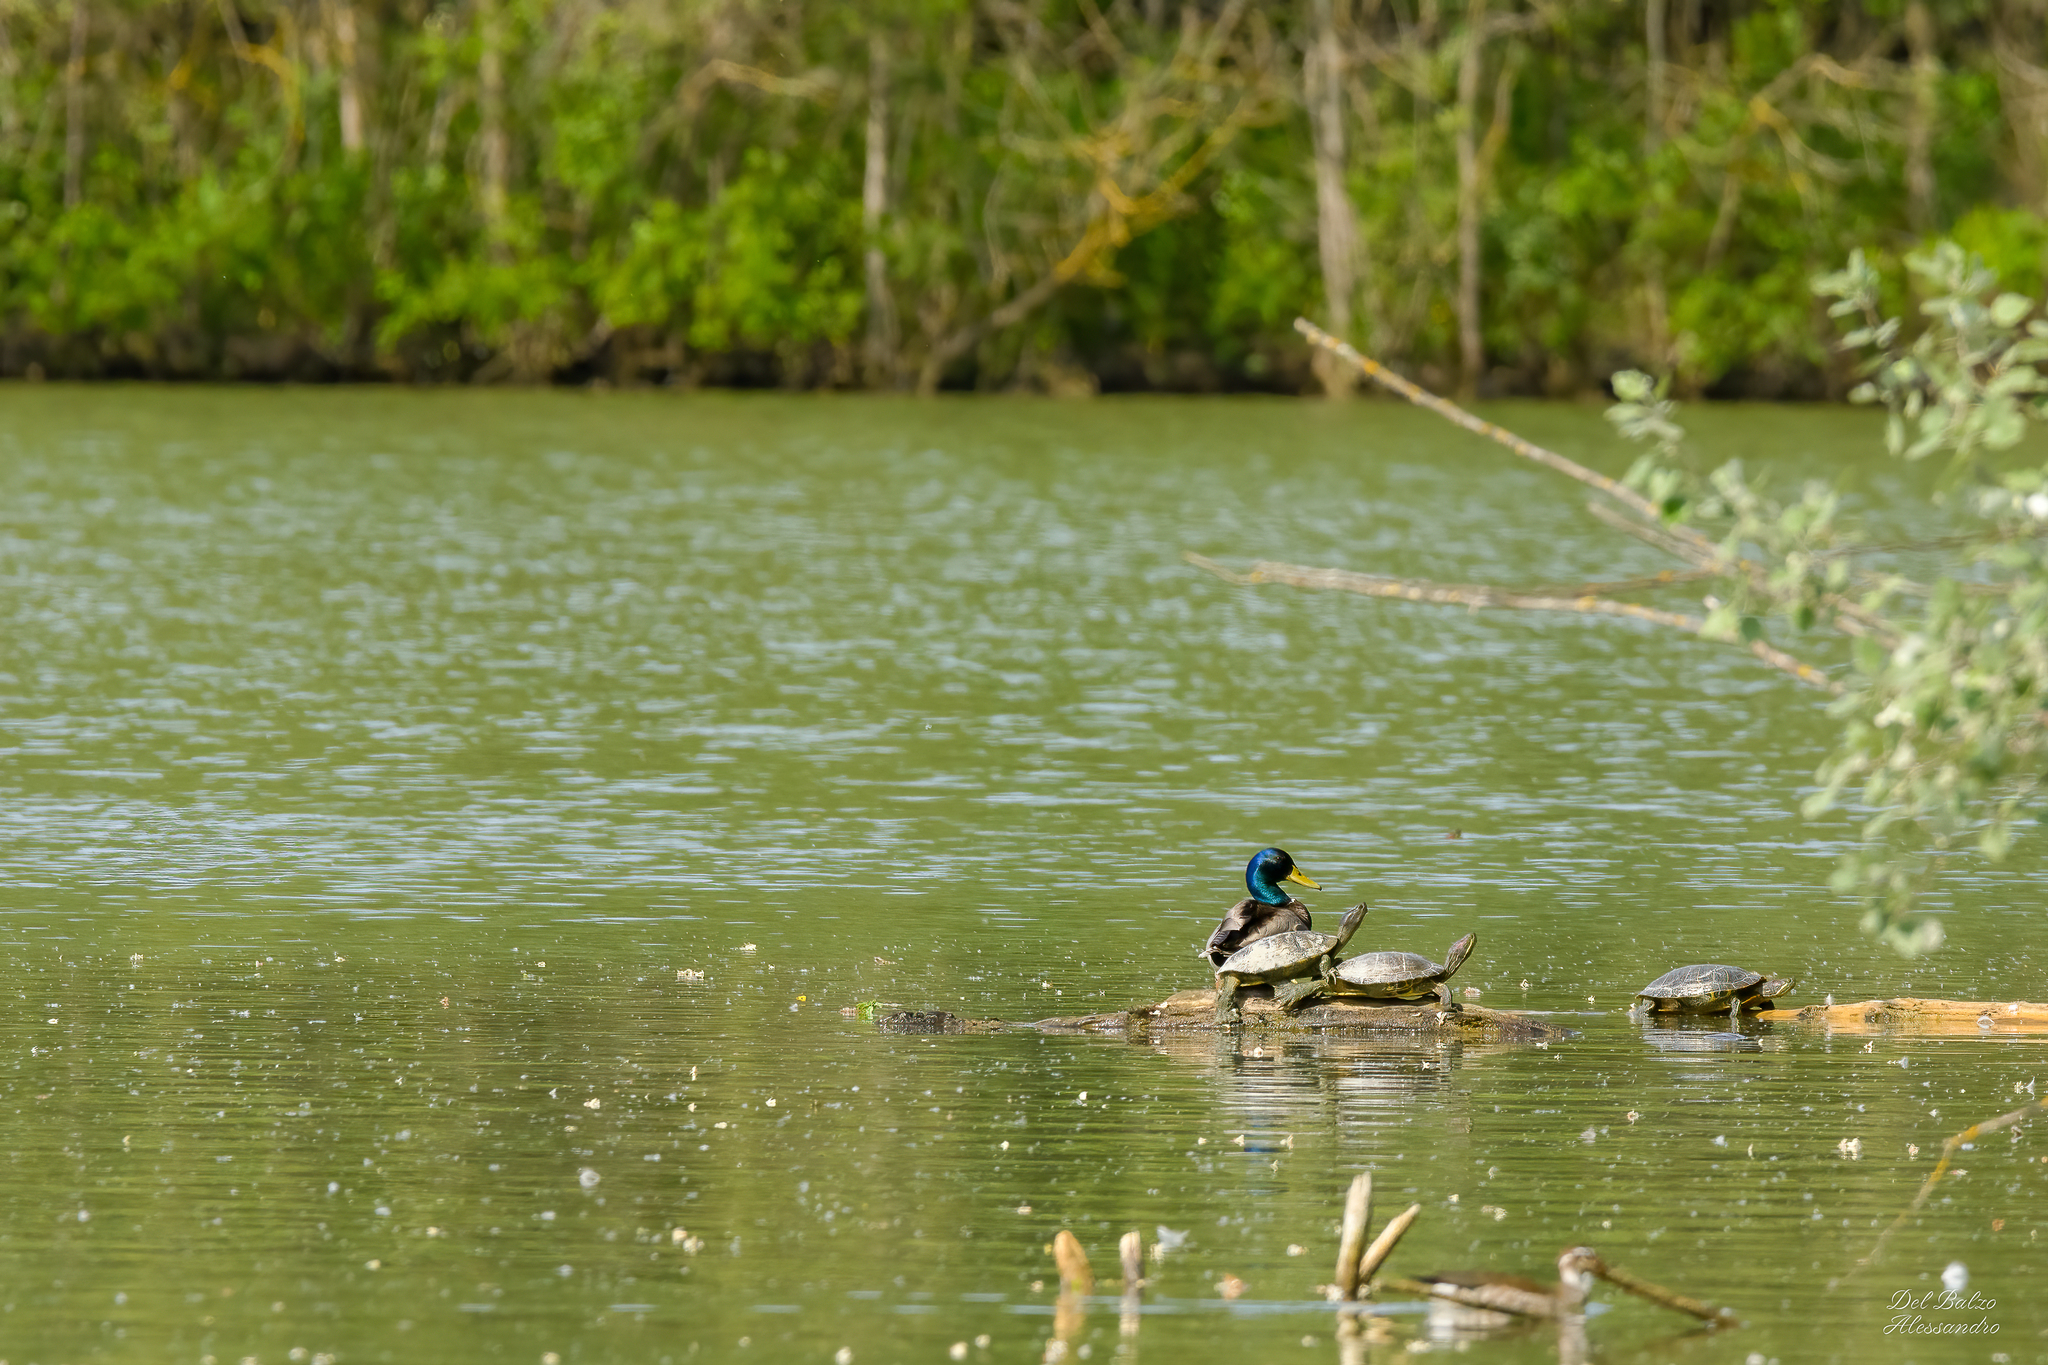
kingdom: Animalia
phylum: Chordata
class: Testudines
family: Emydidae
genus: Trachemys
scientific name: Trachemys scripta
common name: Slider
